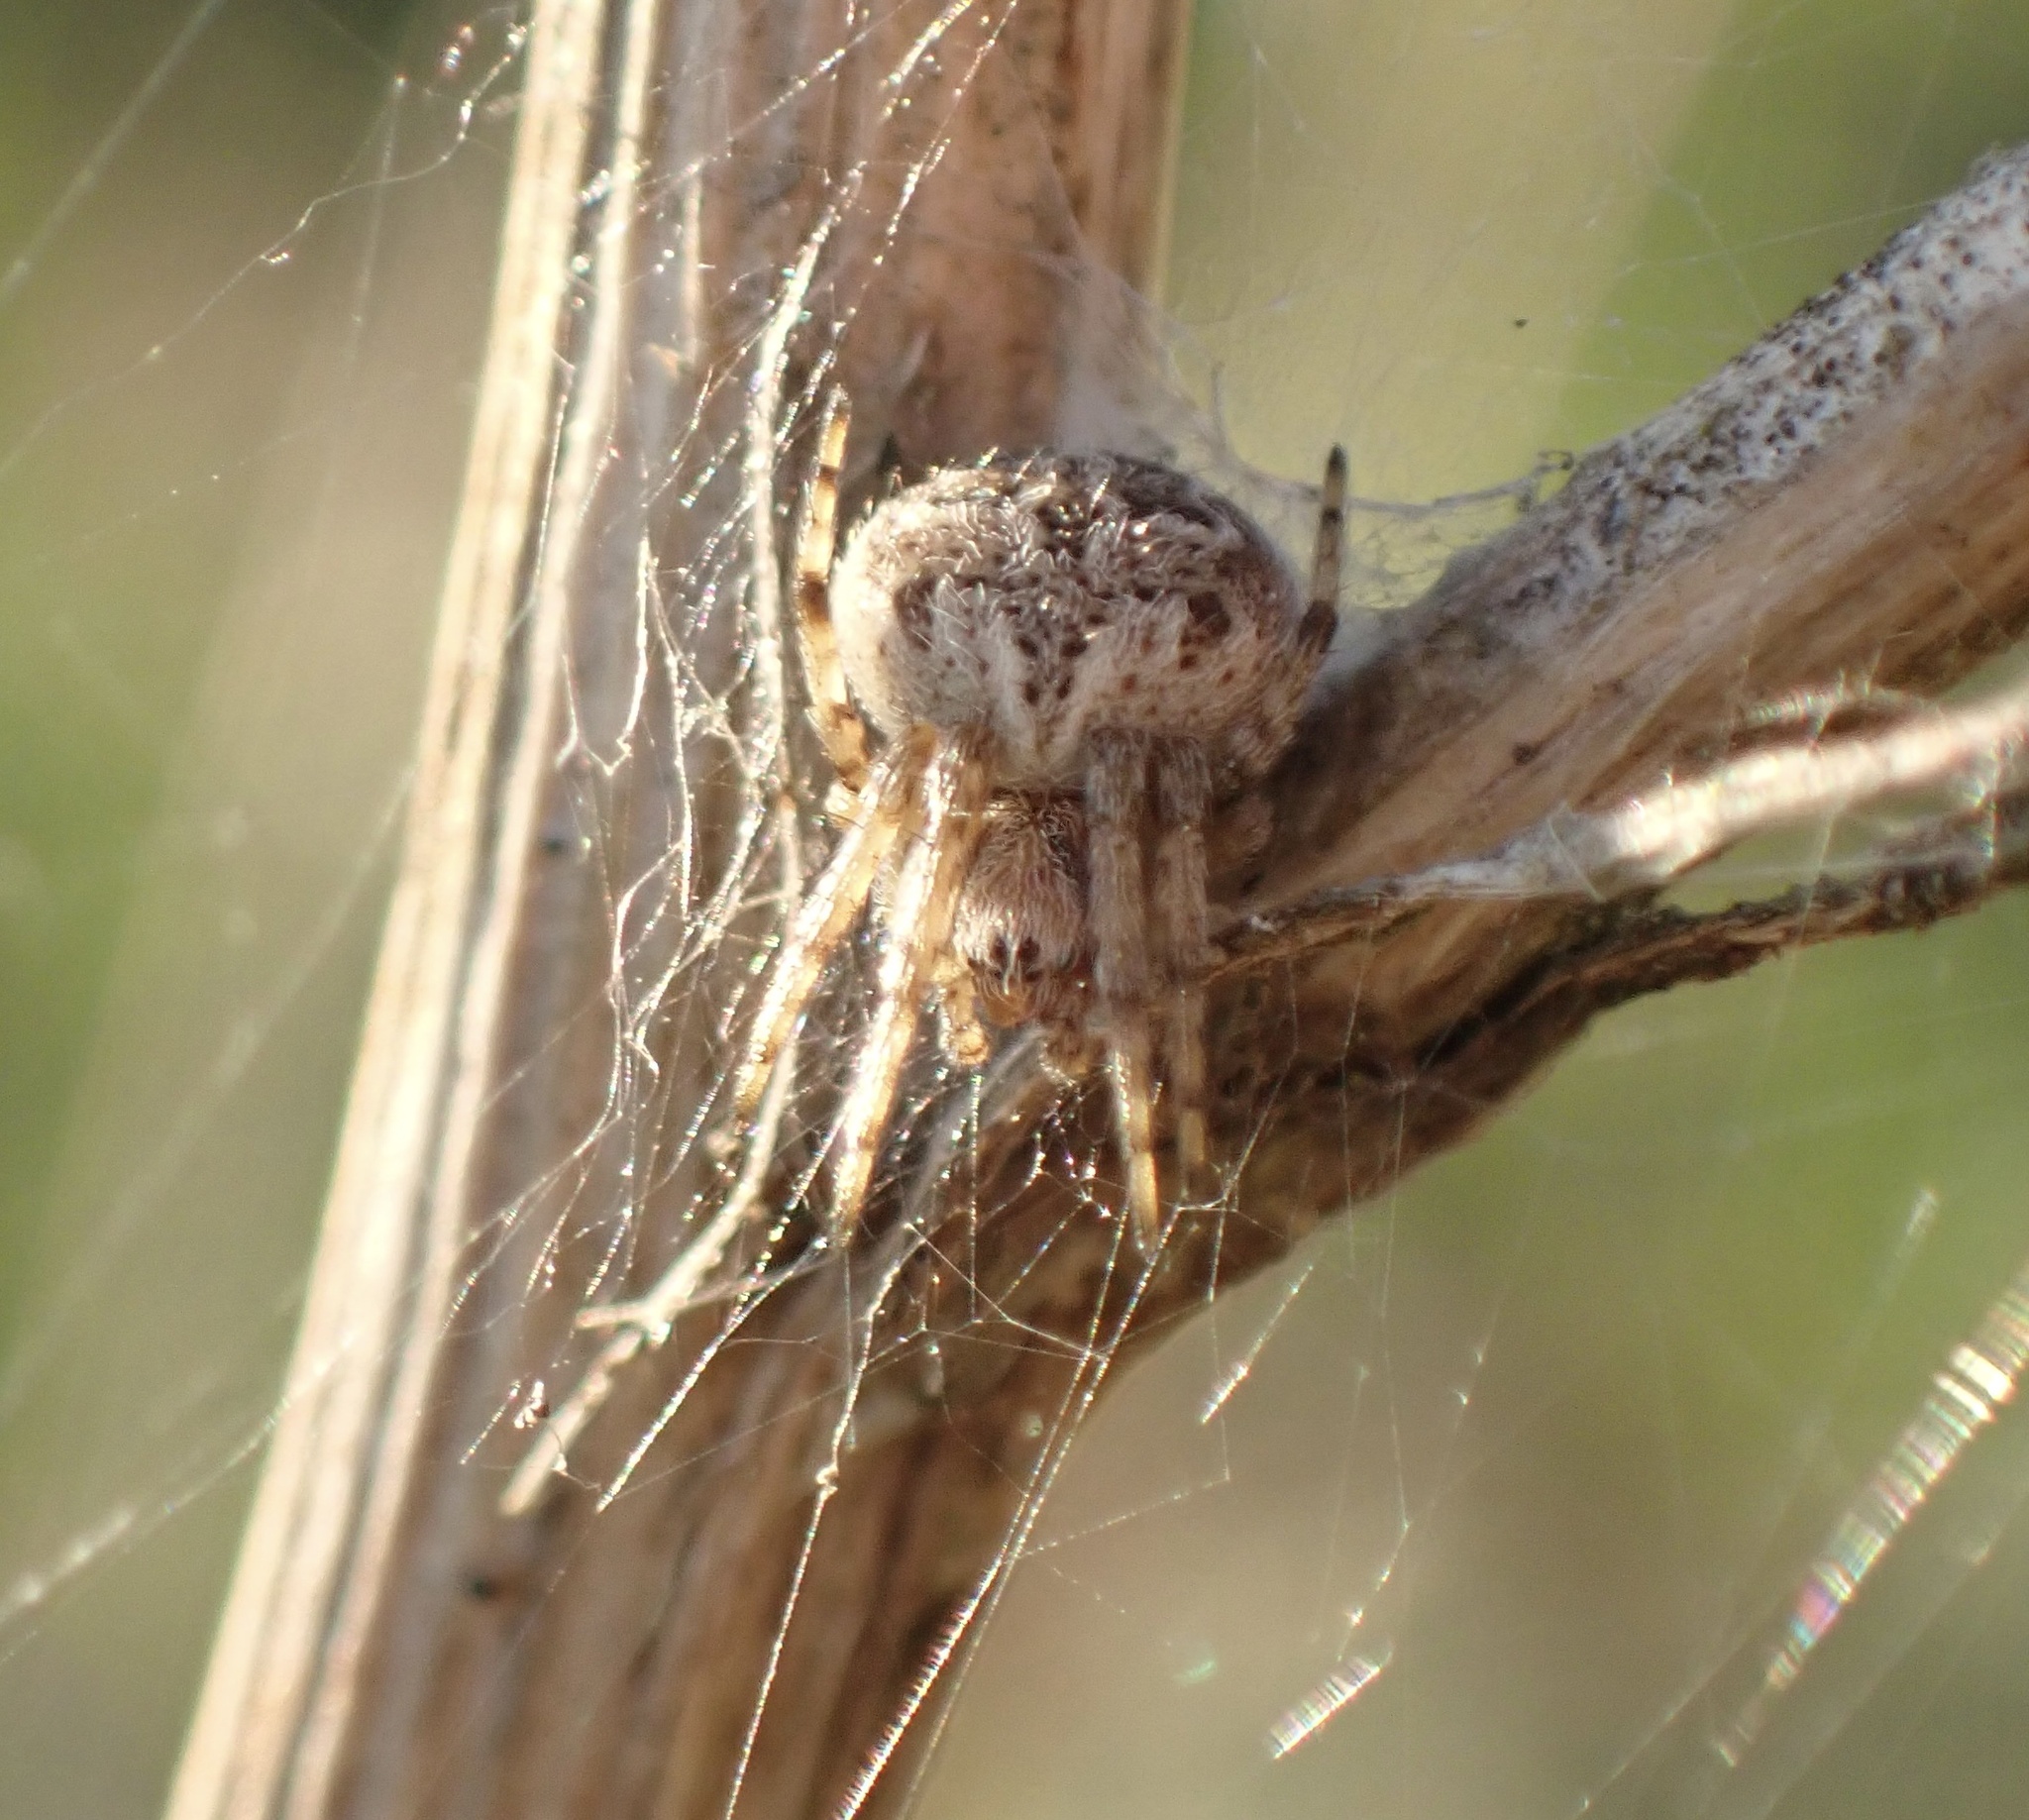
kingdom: Animalia
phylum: Arthropoda
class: Arachnida
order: Araneae
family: Araneidae
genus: Agalenatea
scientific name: Agalenatea redii
